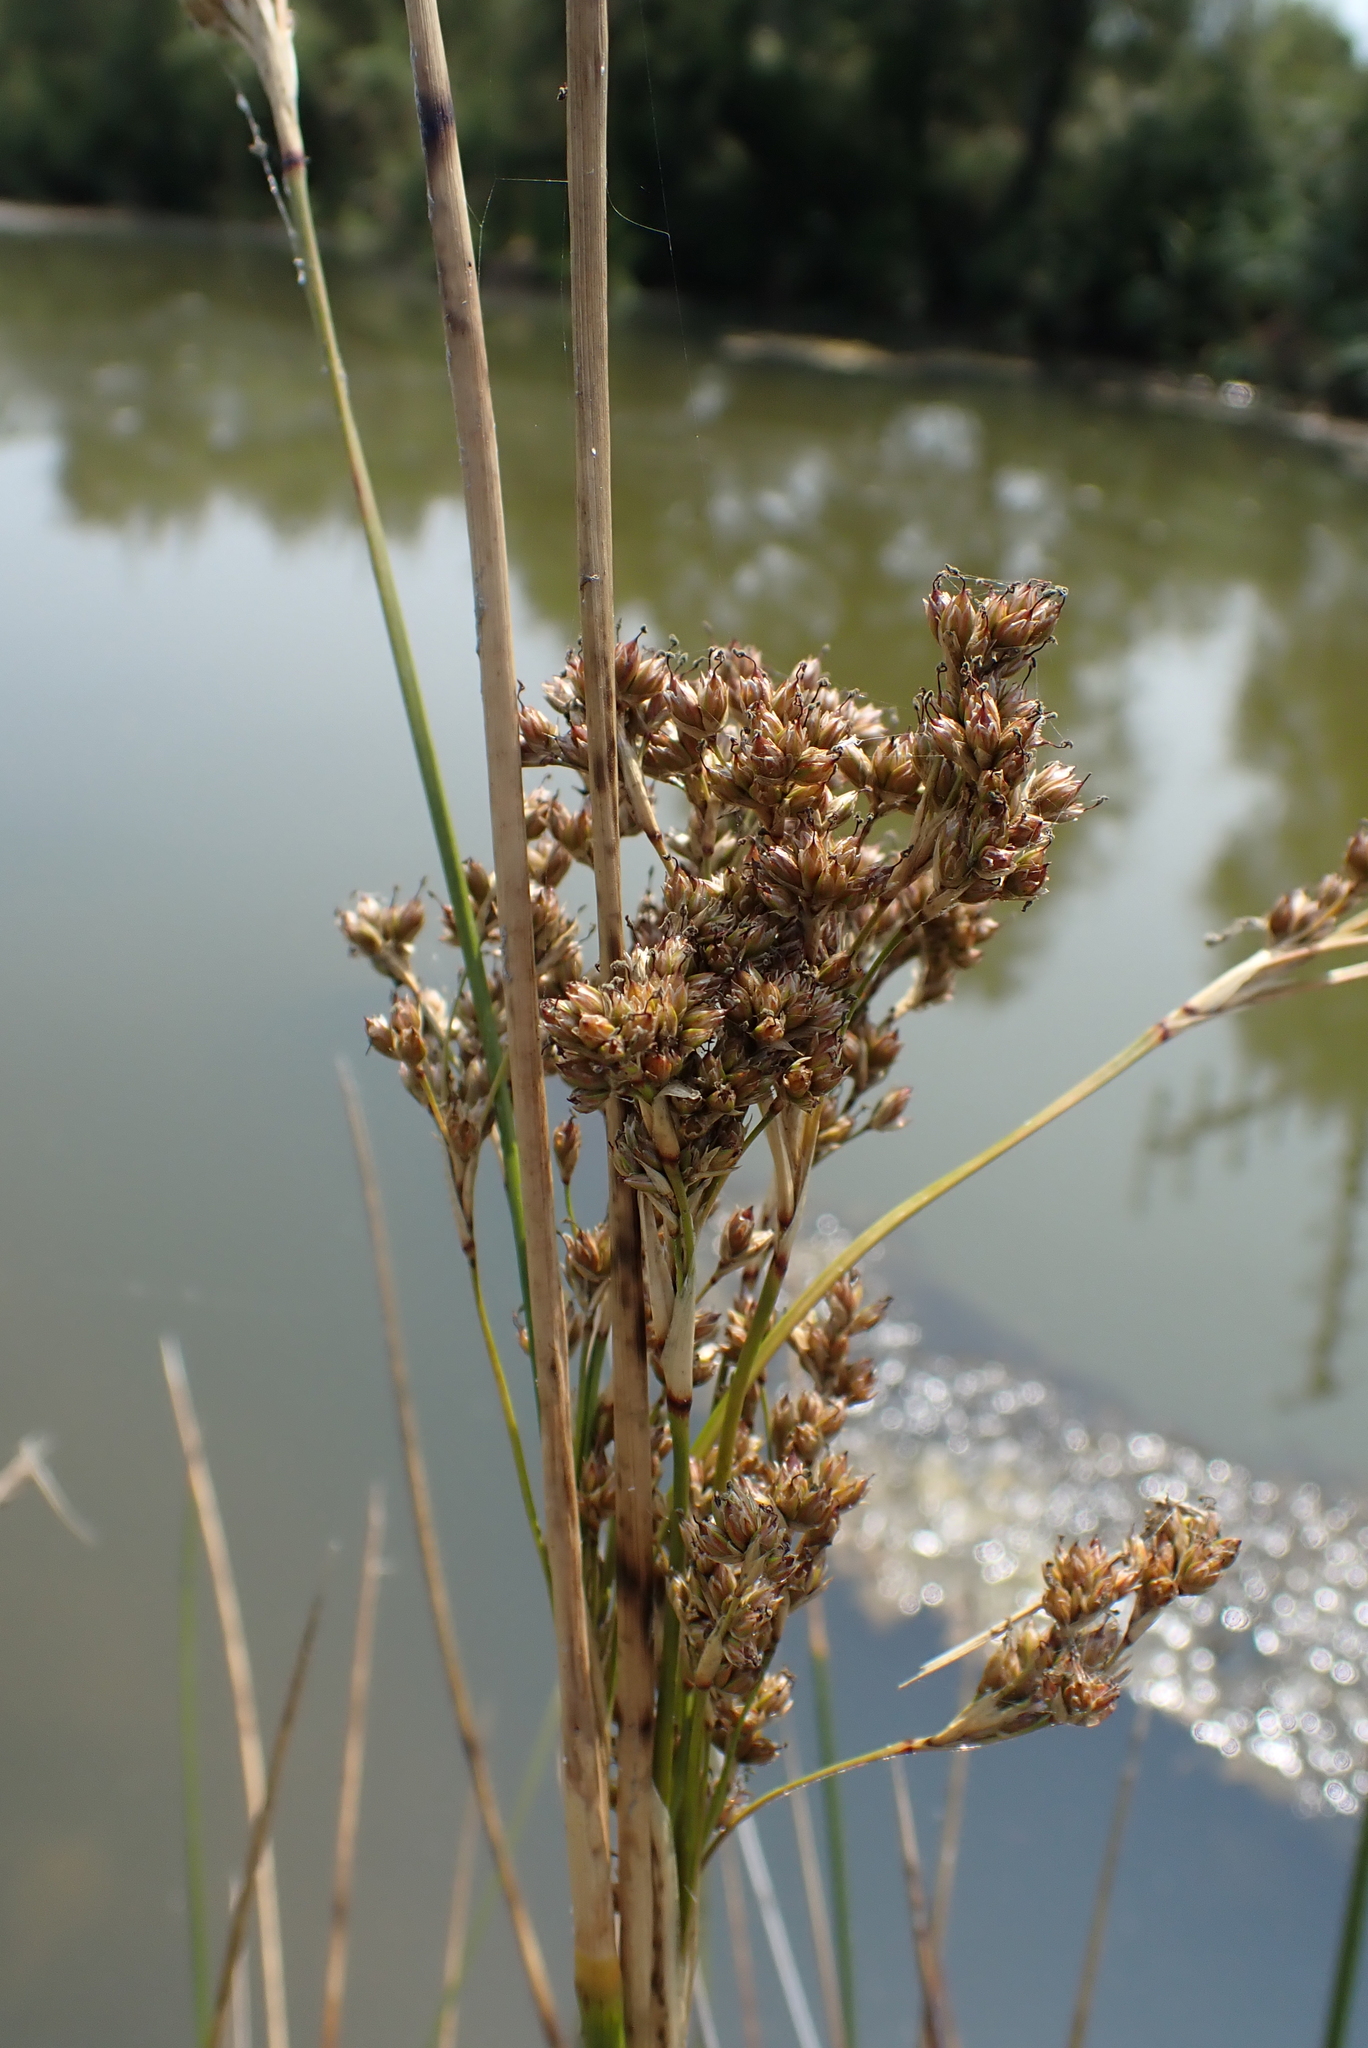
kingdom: Plantae
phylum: Tracheophyta
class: Liliopsida
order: Poales
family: Juncaceae
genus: Juncus
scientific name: Juncus maritimus
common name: Sea rush
